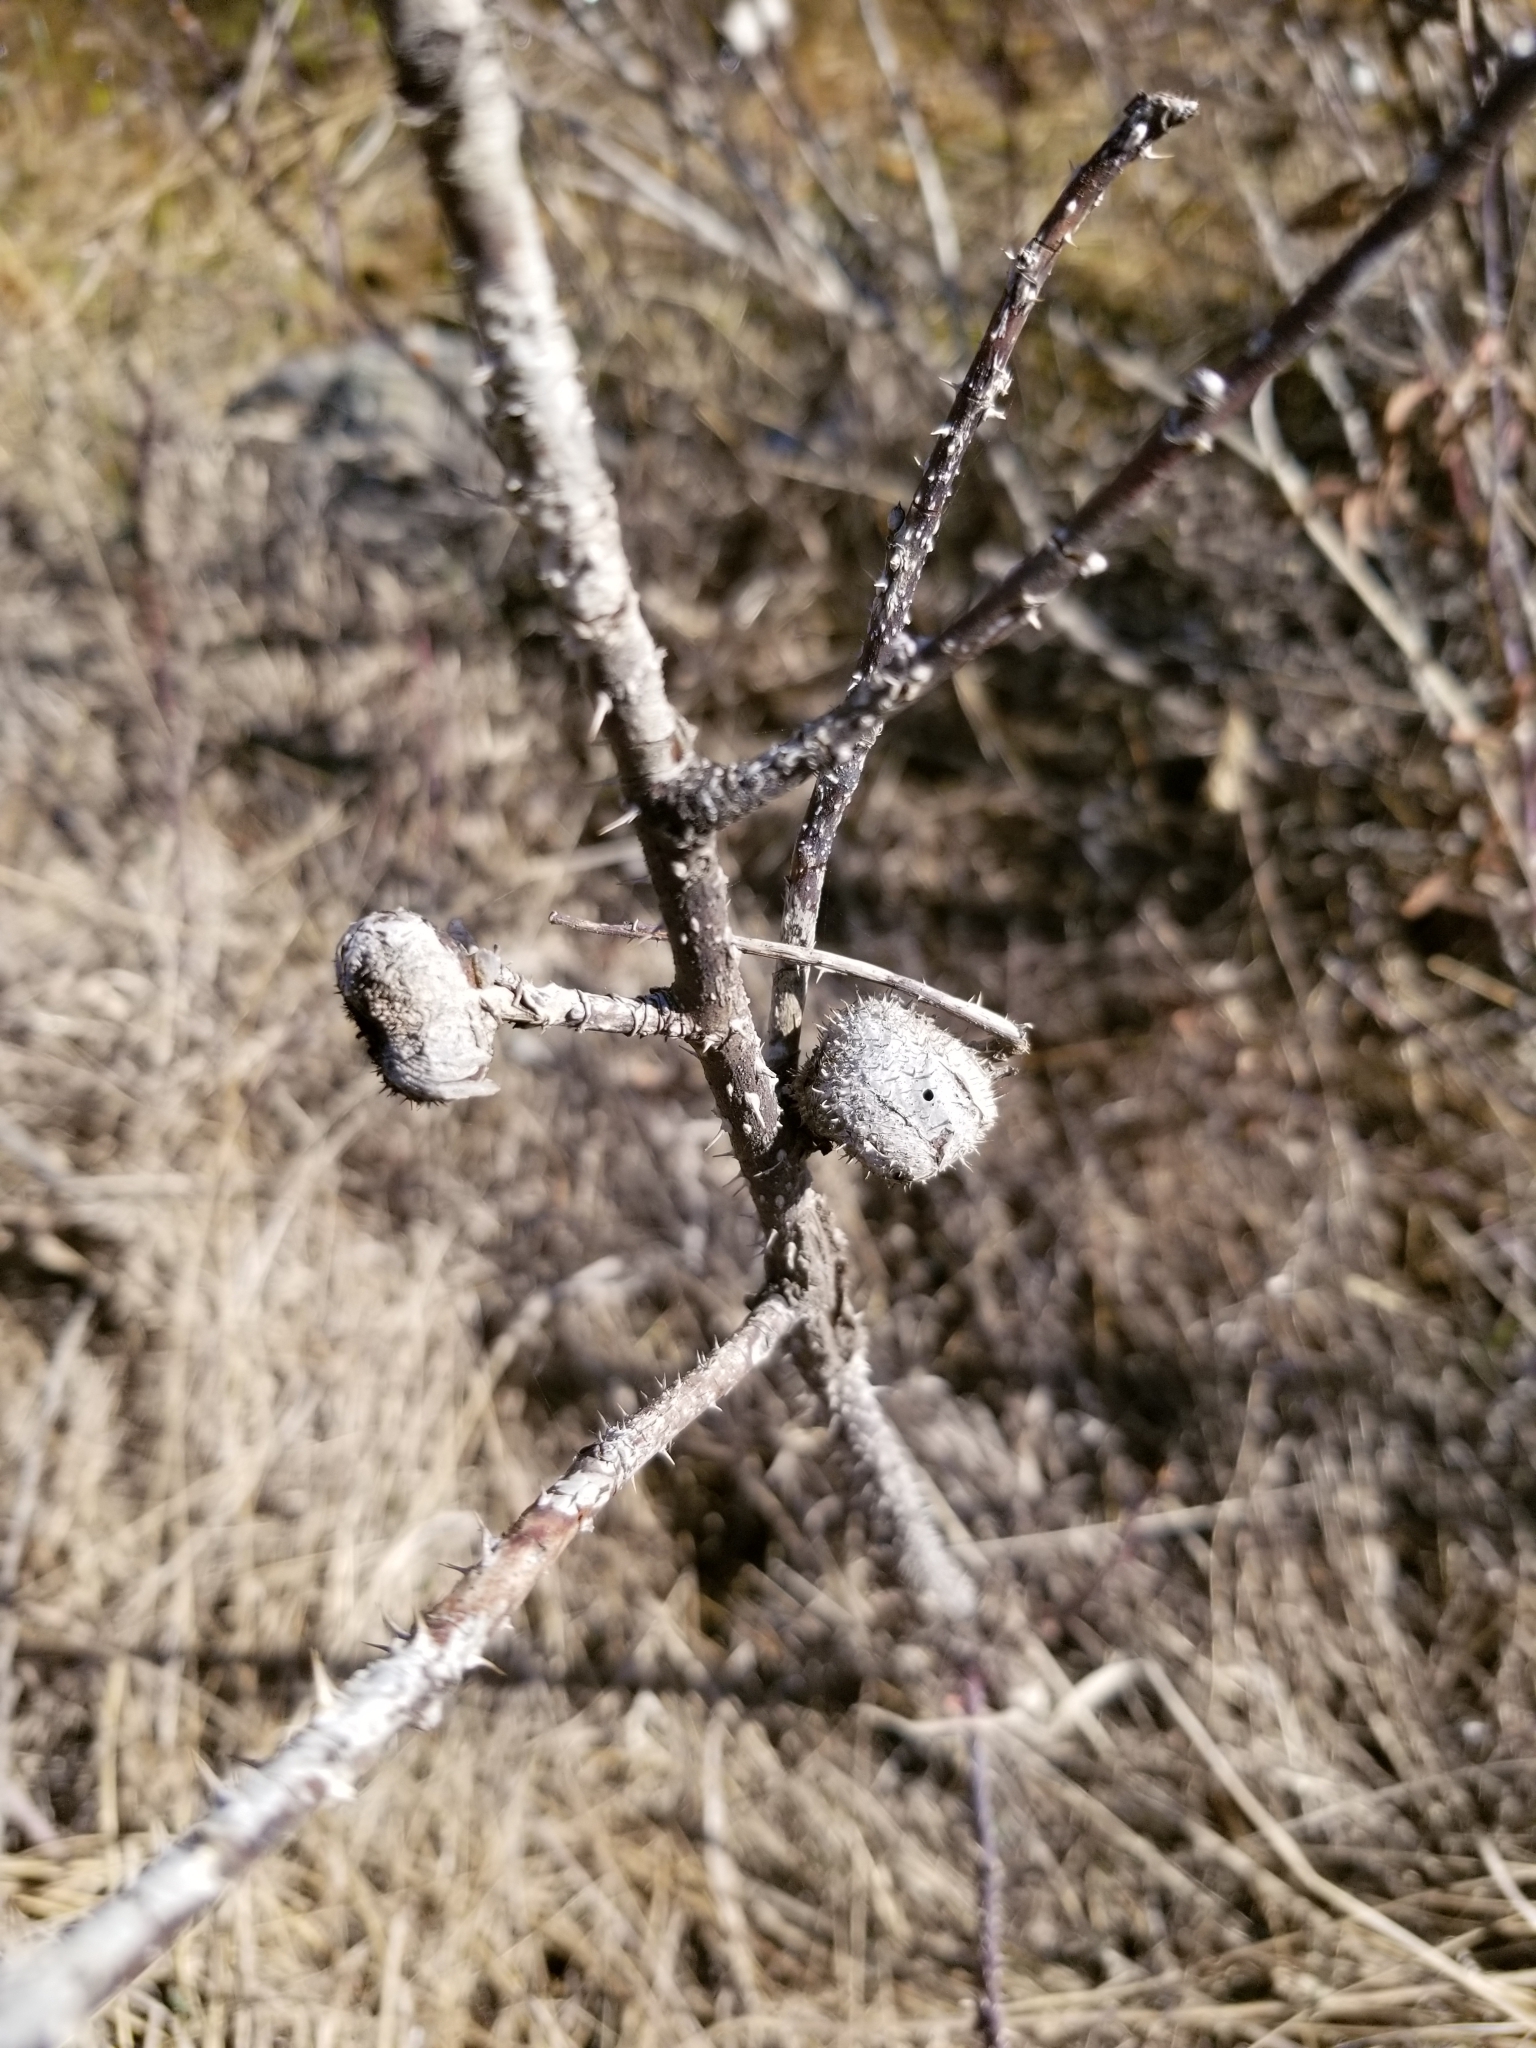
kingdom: Animalia
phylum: Arthropoda
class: Insecta
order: Hymenoptera
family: Cynipidae
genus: Diplolepis
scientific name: Diplolepis spinosa
